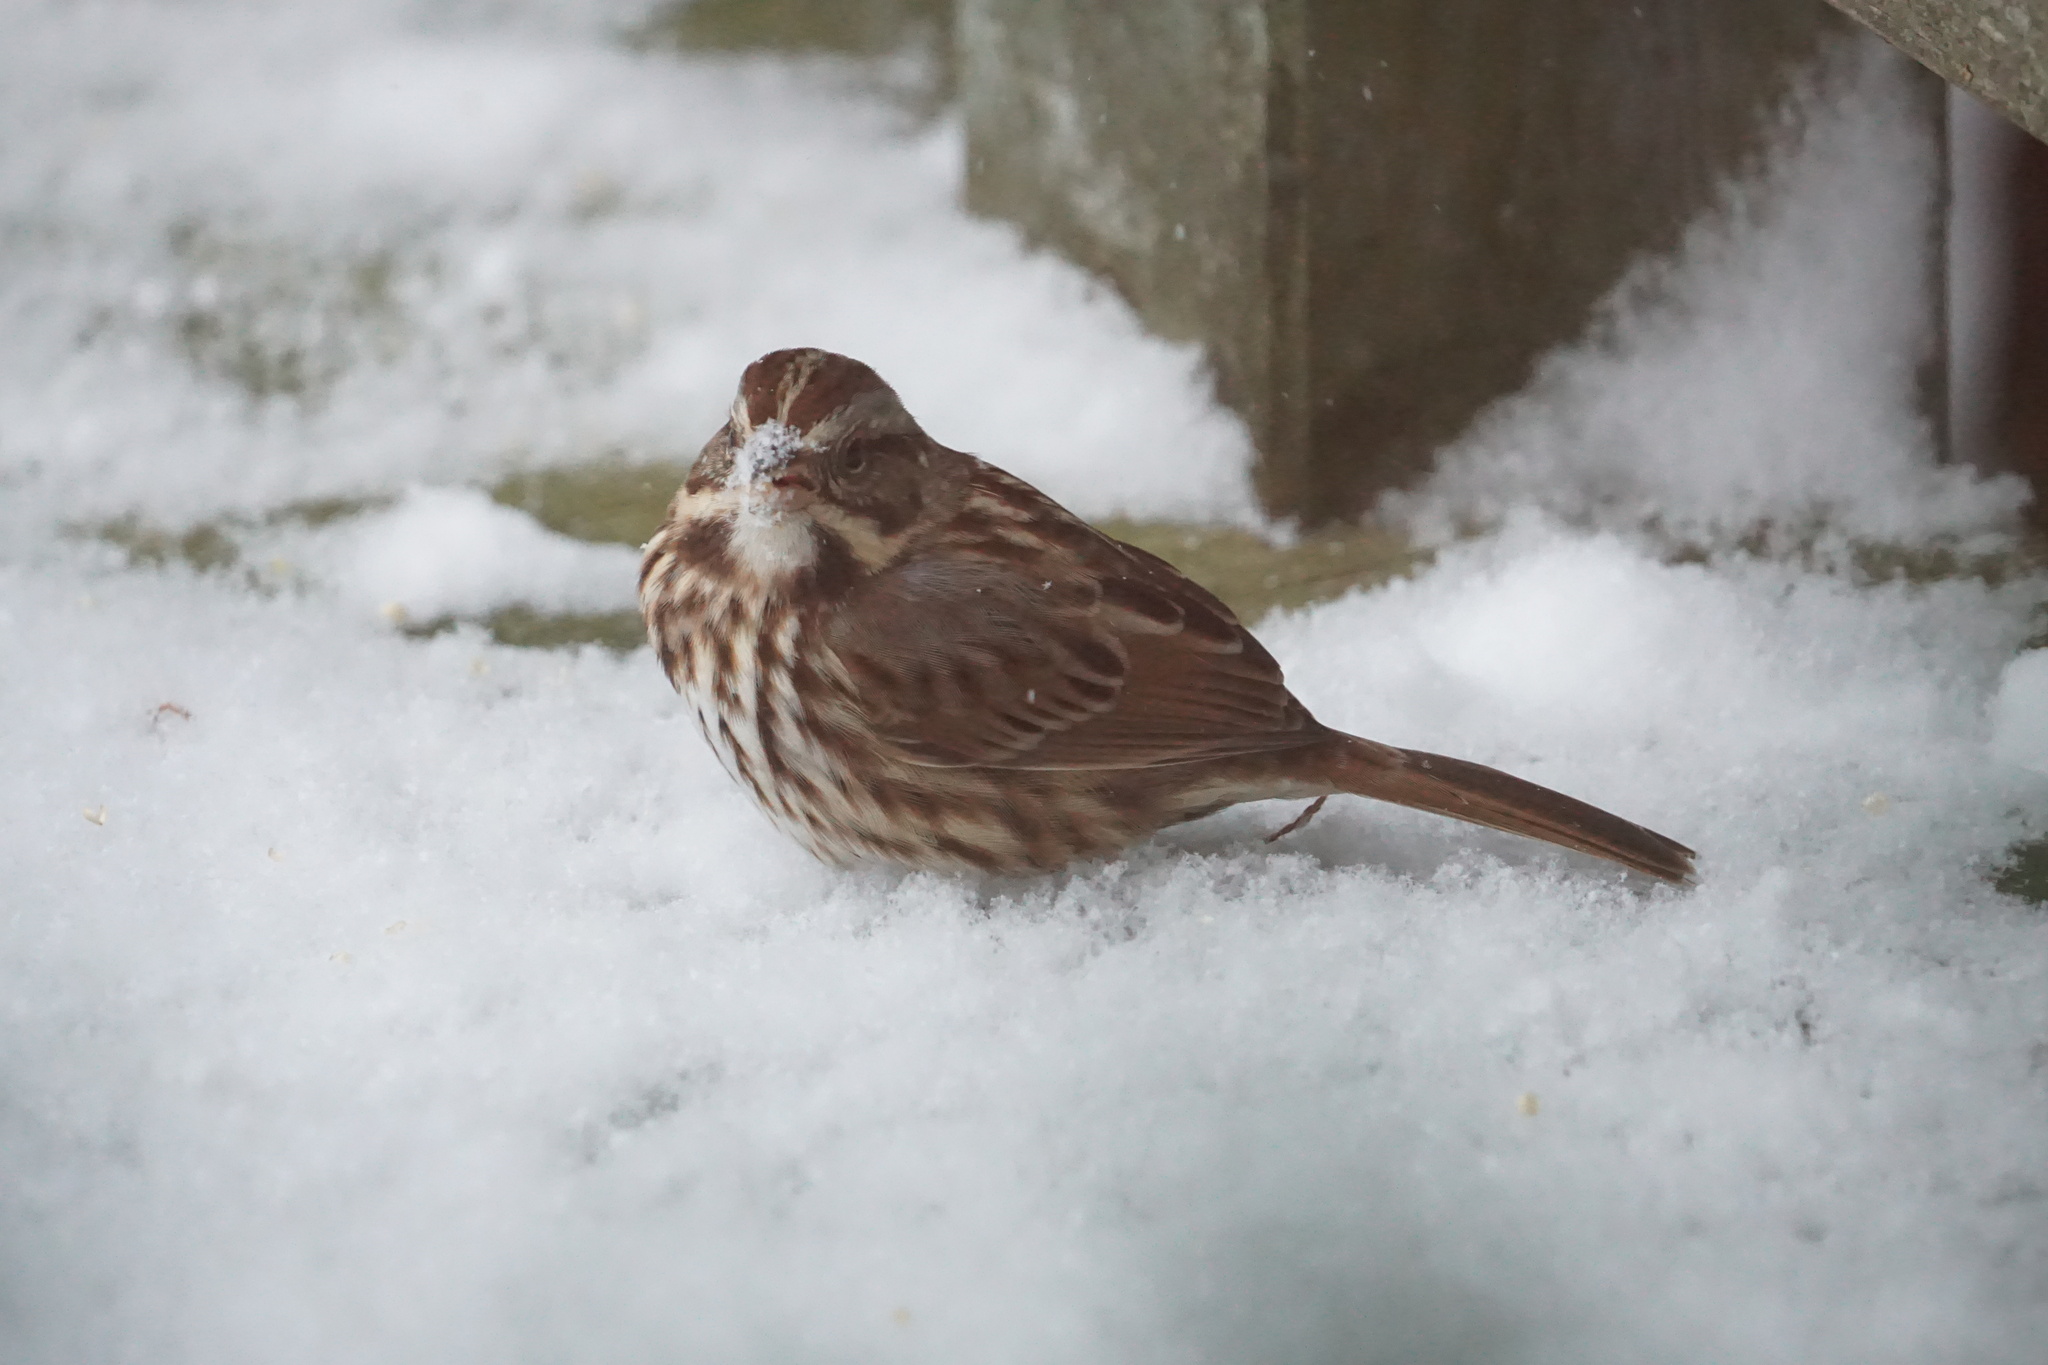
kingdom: Animalia
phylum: Chordata
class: Aves
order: Passeriformes
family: Passerellidae
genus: Melospiza
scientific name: Melospiza melodia
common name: Song sparrow
